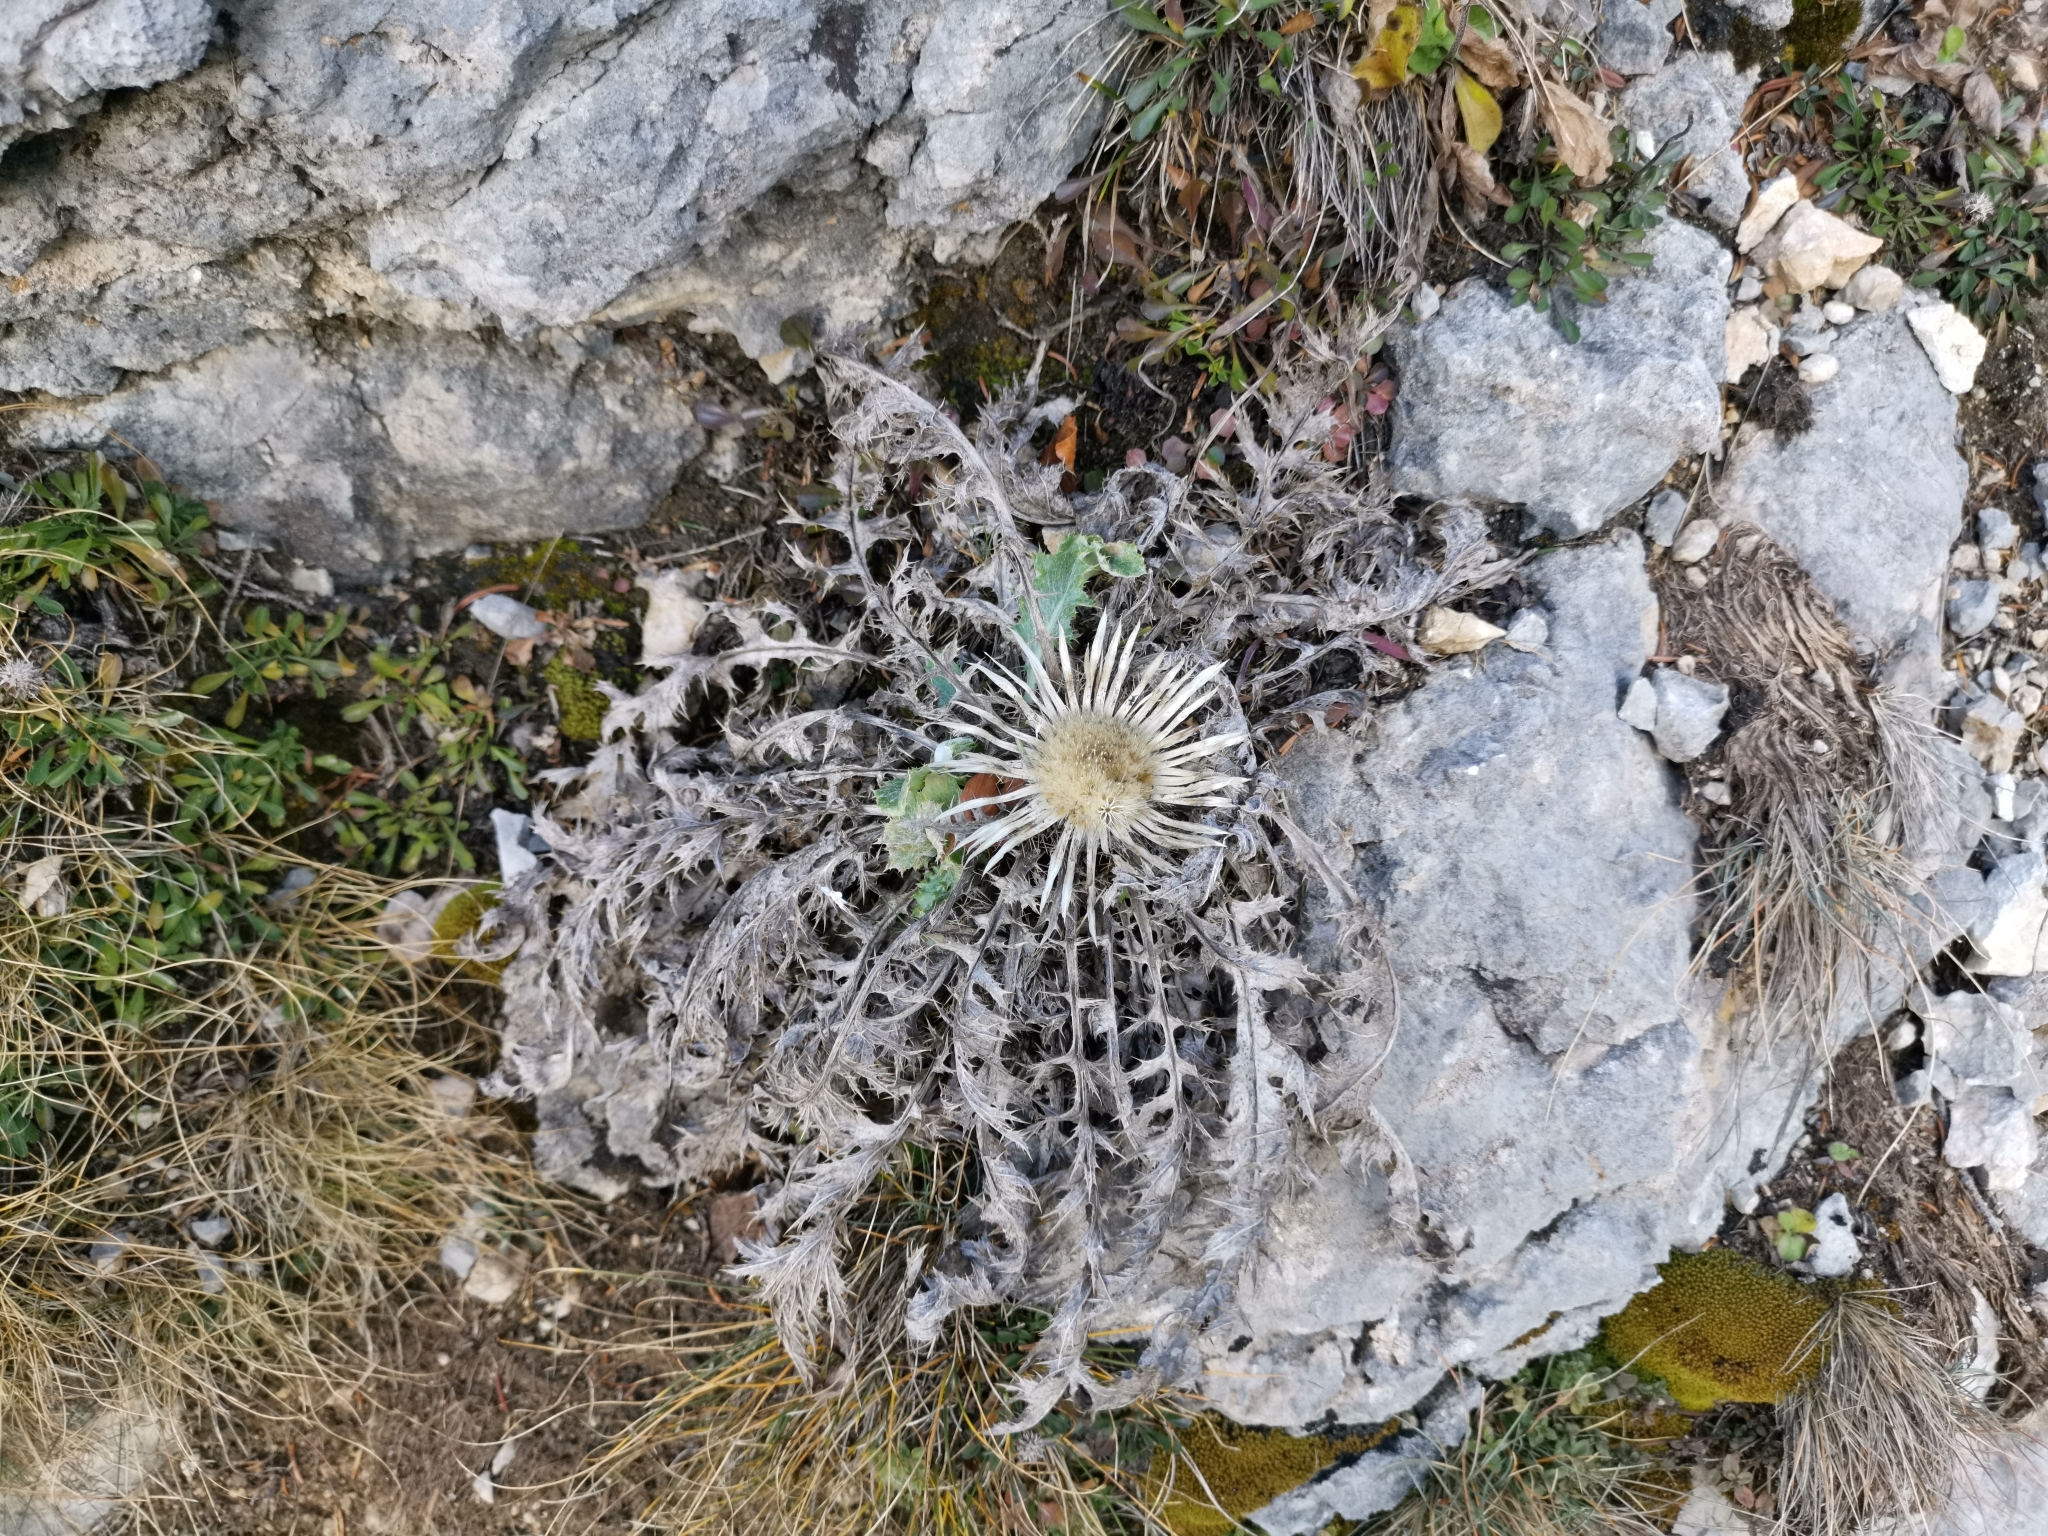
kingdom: Plantae
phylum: Tracheophyta
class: Magnoliopsida
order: Asterales
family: Asteraceae
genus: Carlina
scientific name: Carlina acaulis
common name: Stemless carline thistle
